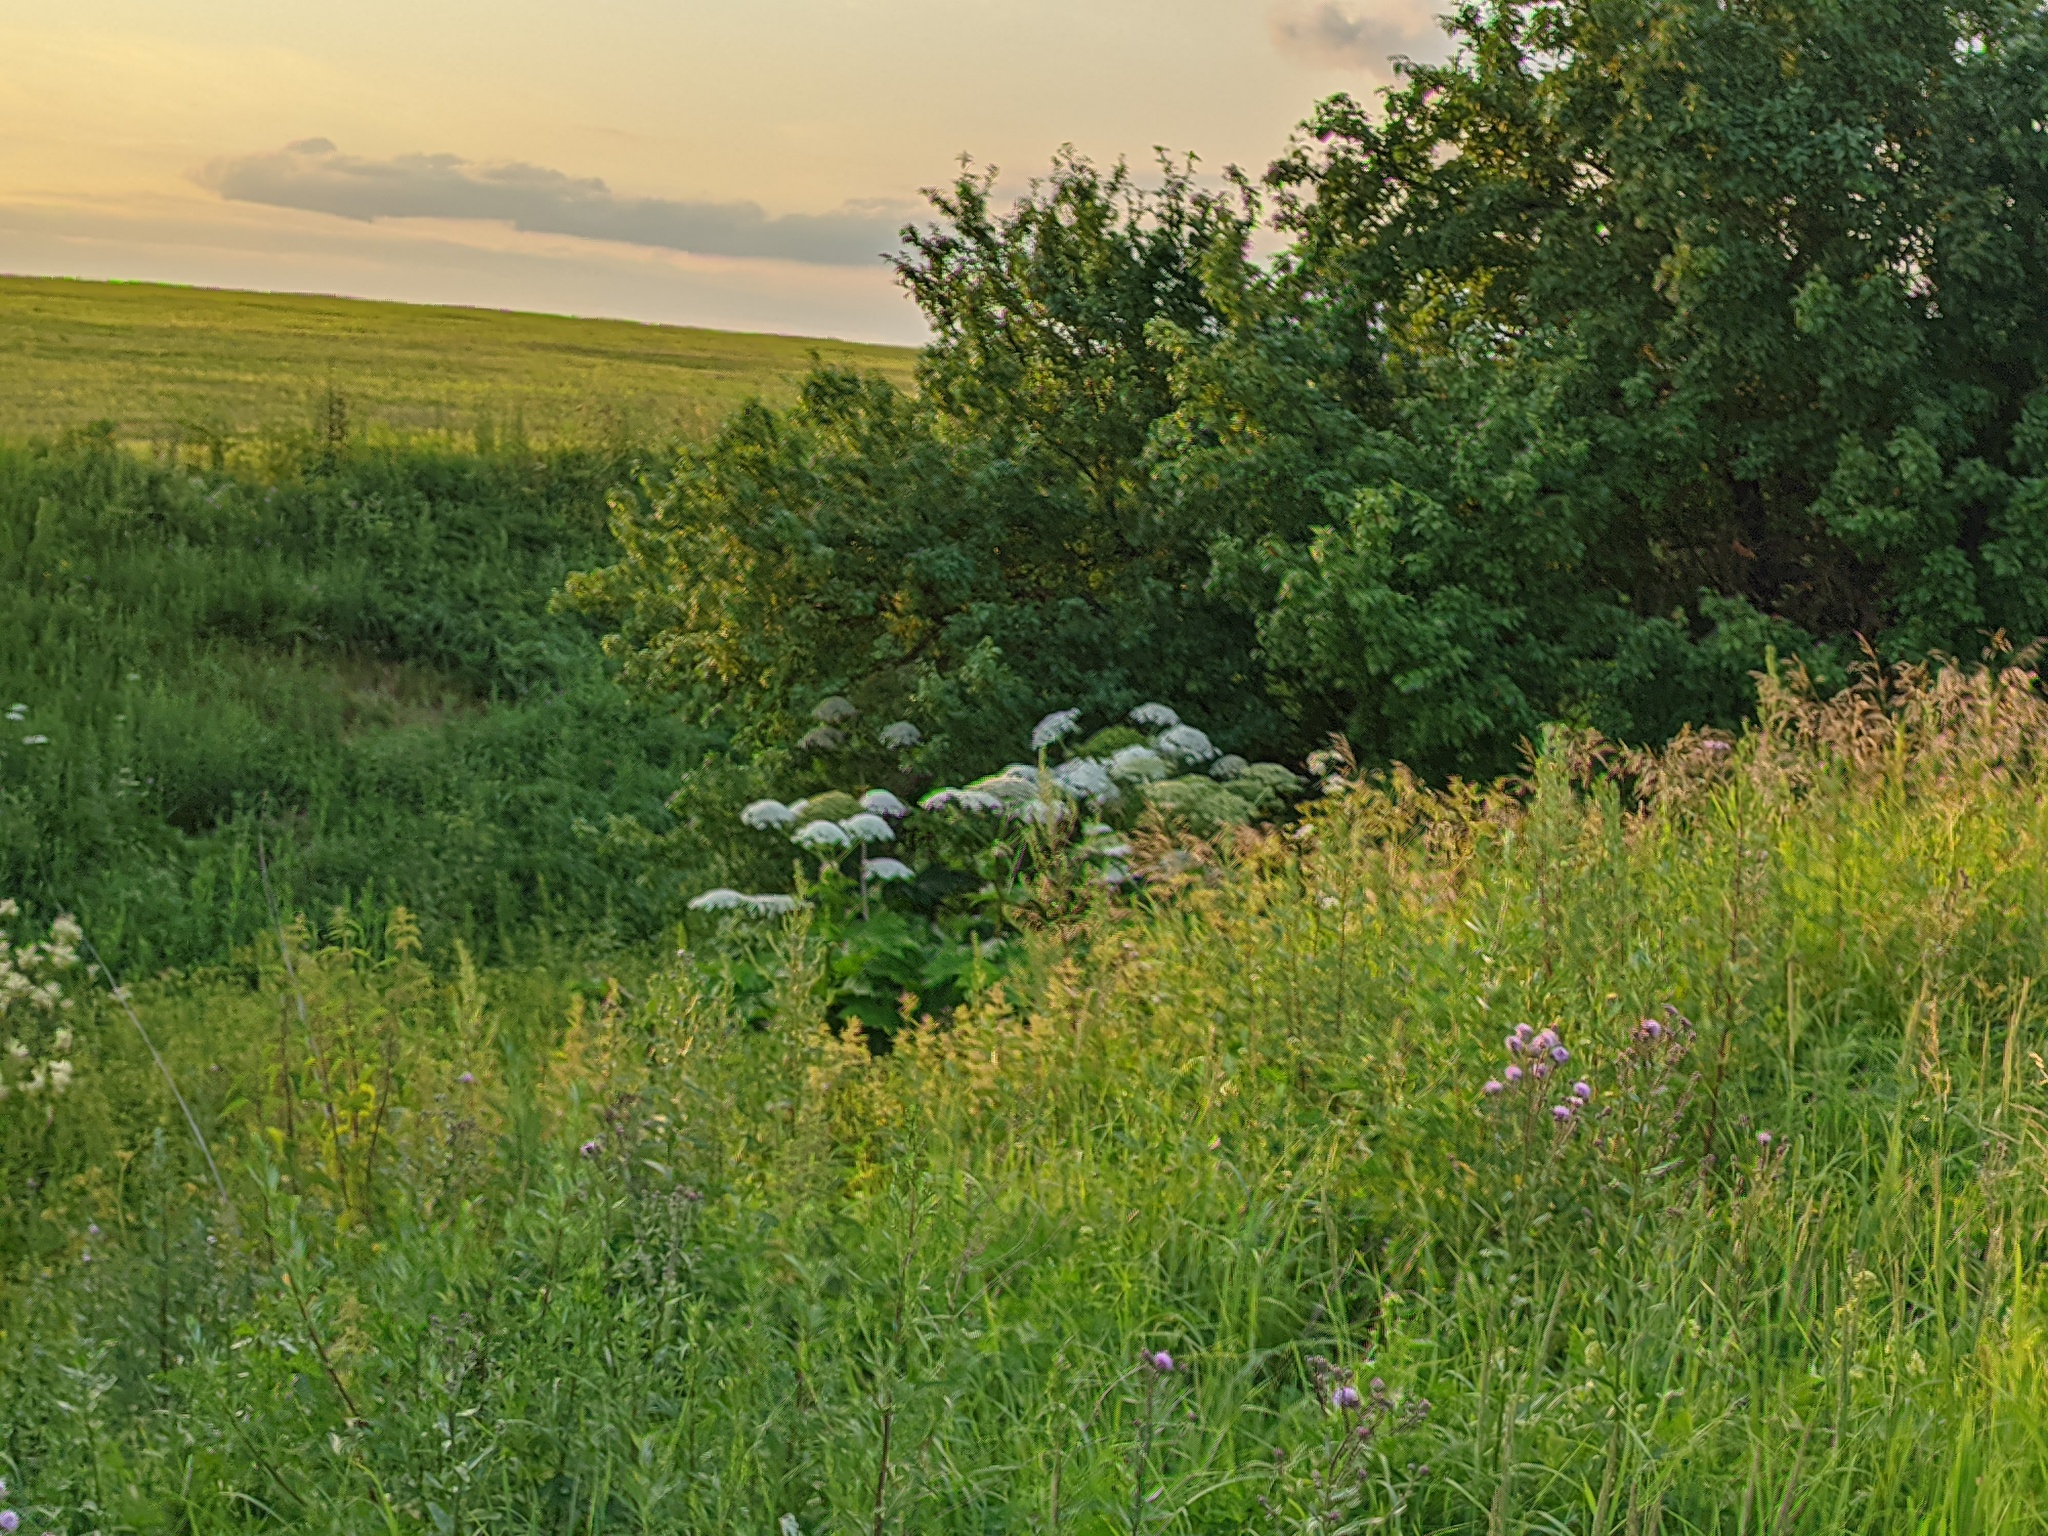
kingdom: Plantae
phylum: Tracheophyta
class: Magnoliopsida
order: Apiales
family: Apiaceae
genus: Heracleum
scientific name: Heracleum sosnowskyi
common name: Sosnowsky's hogweed
